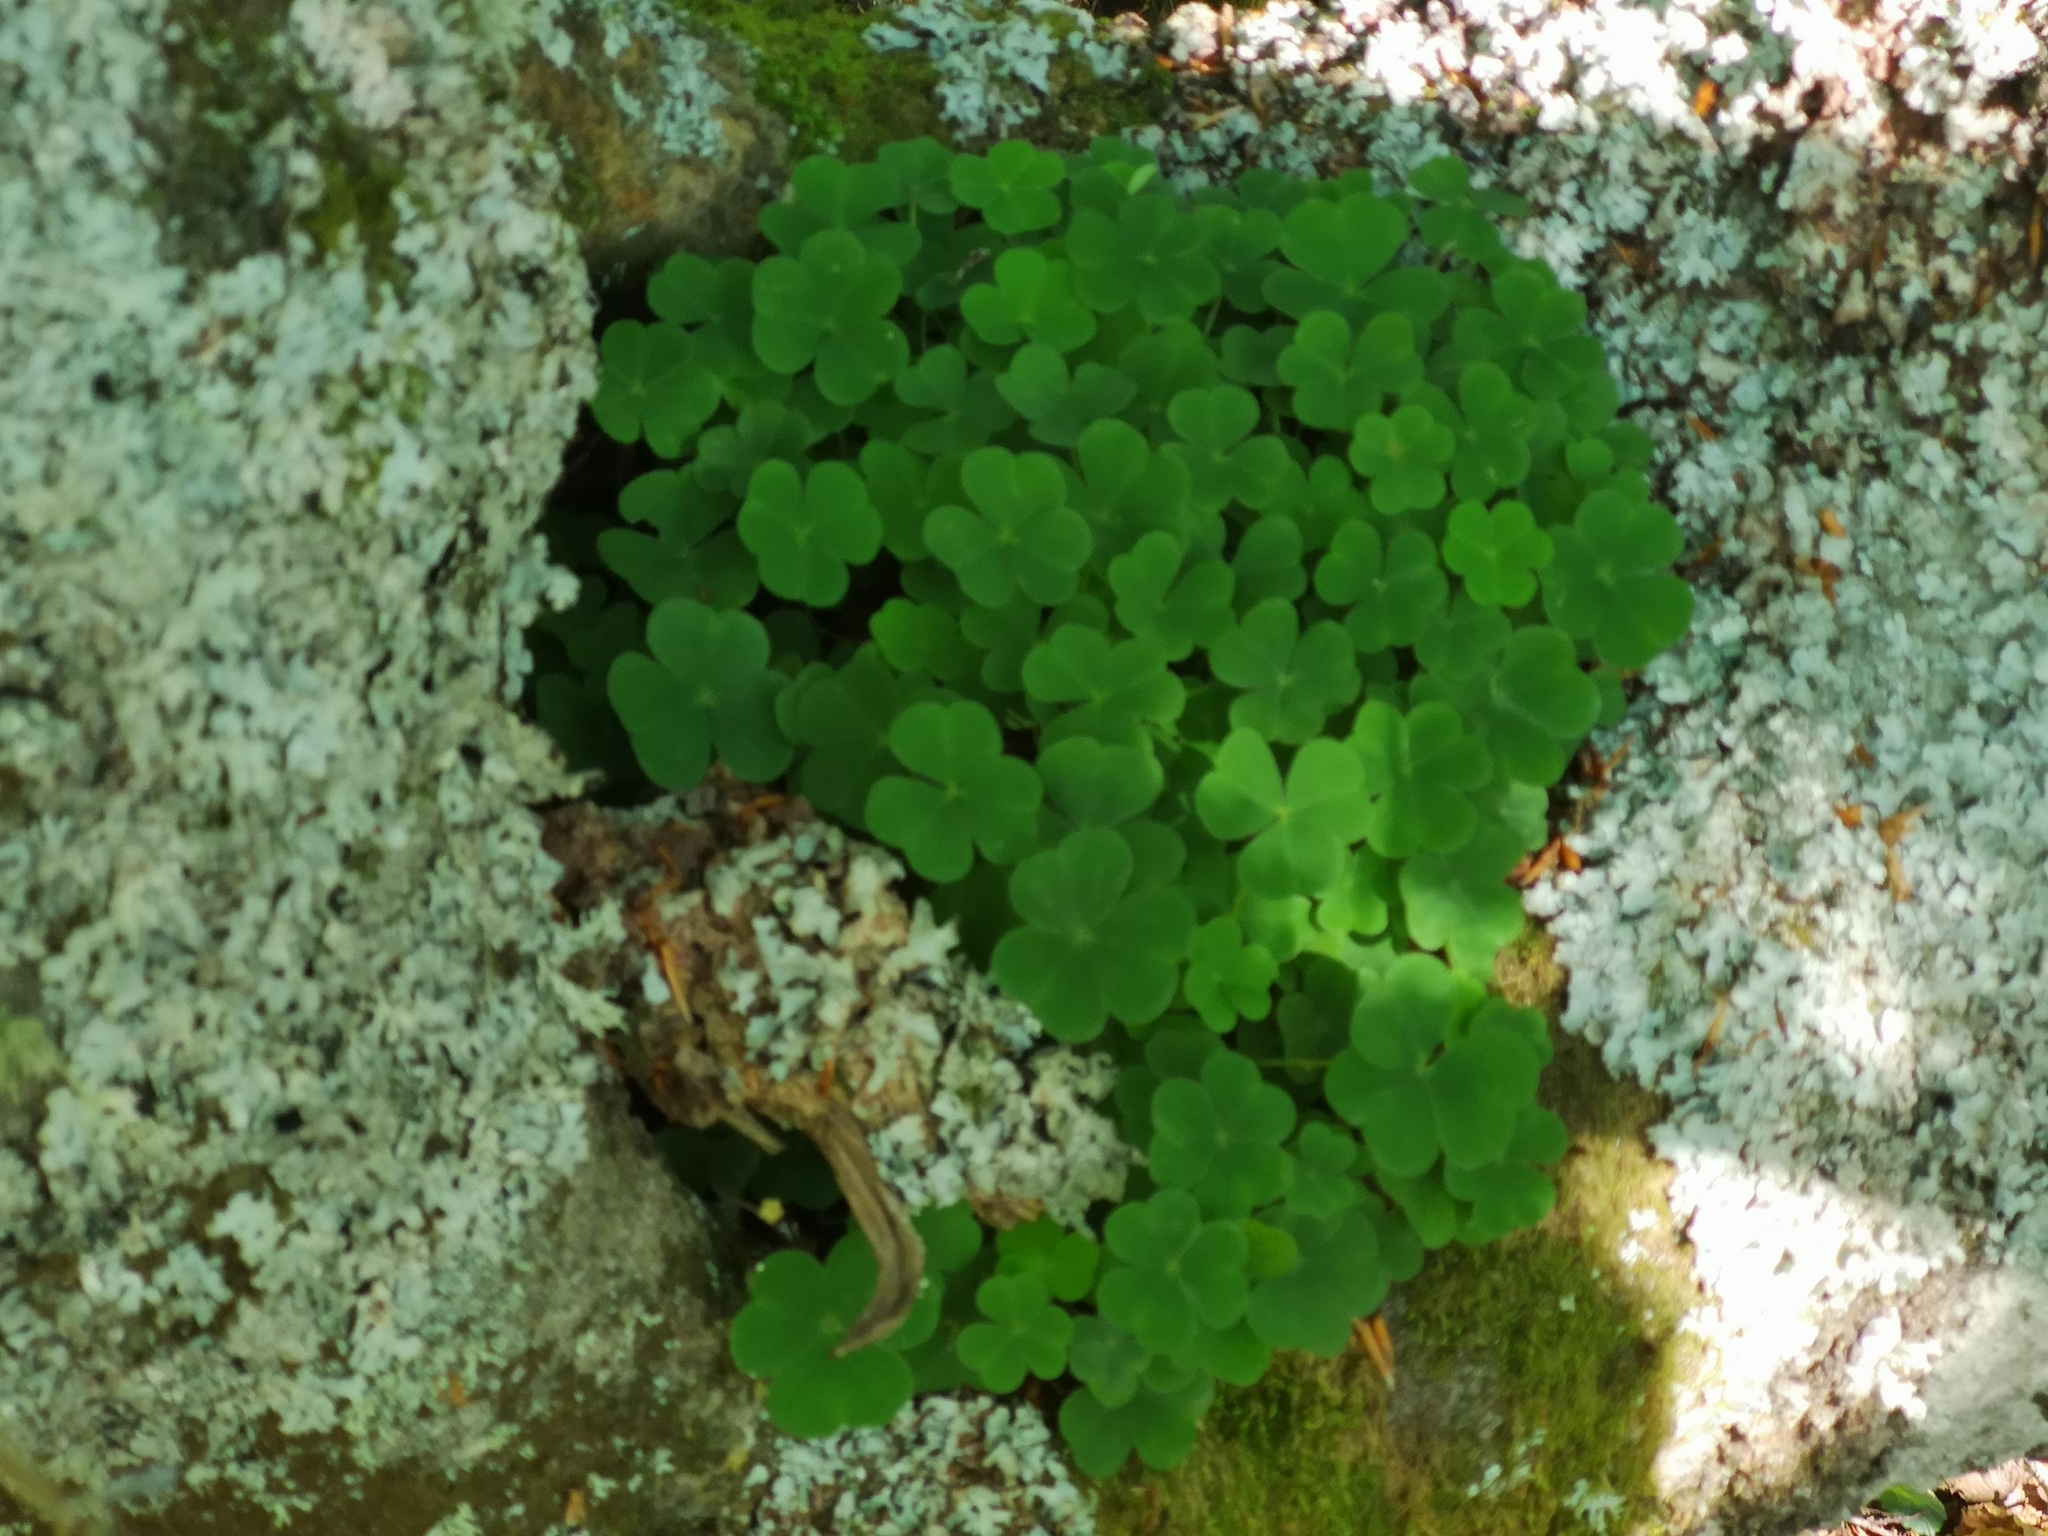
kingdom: Plantae
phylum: Tracheophyta
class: Magnoliopsida
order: Oxalidales
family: Oxalidaceae
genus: Oxalis
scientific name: Oxalis acetosella
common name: Wood-sorrel
